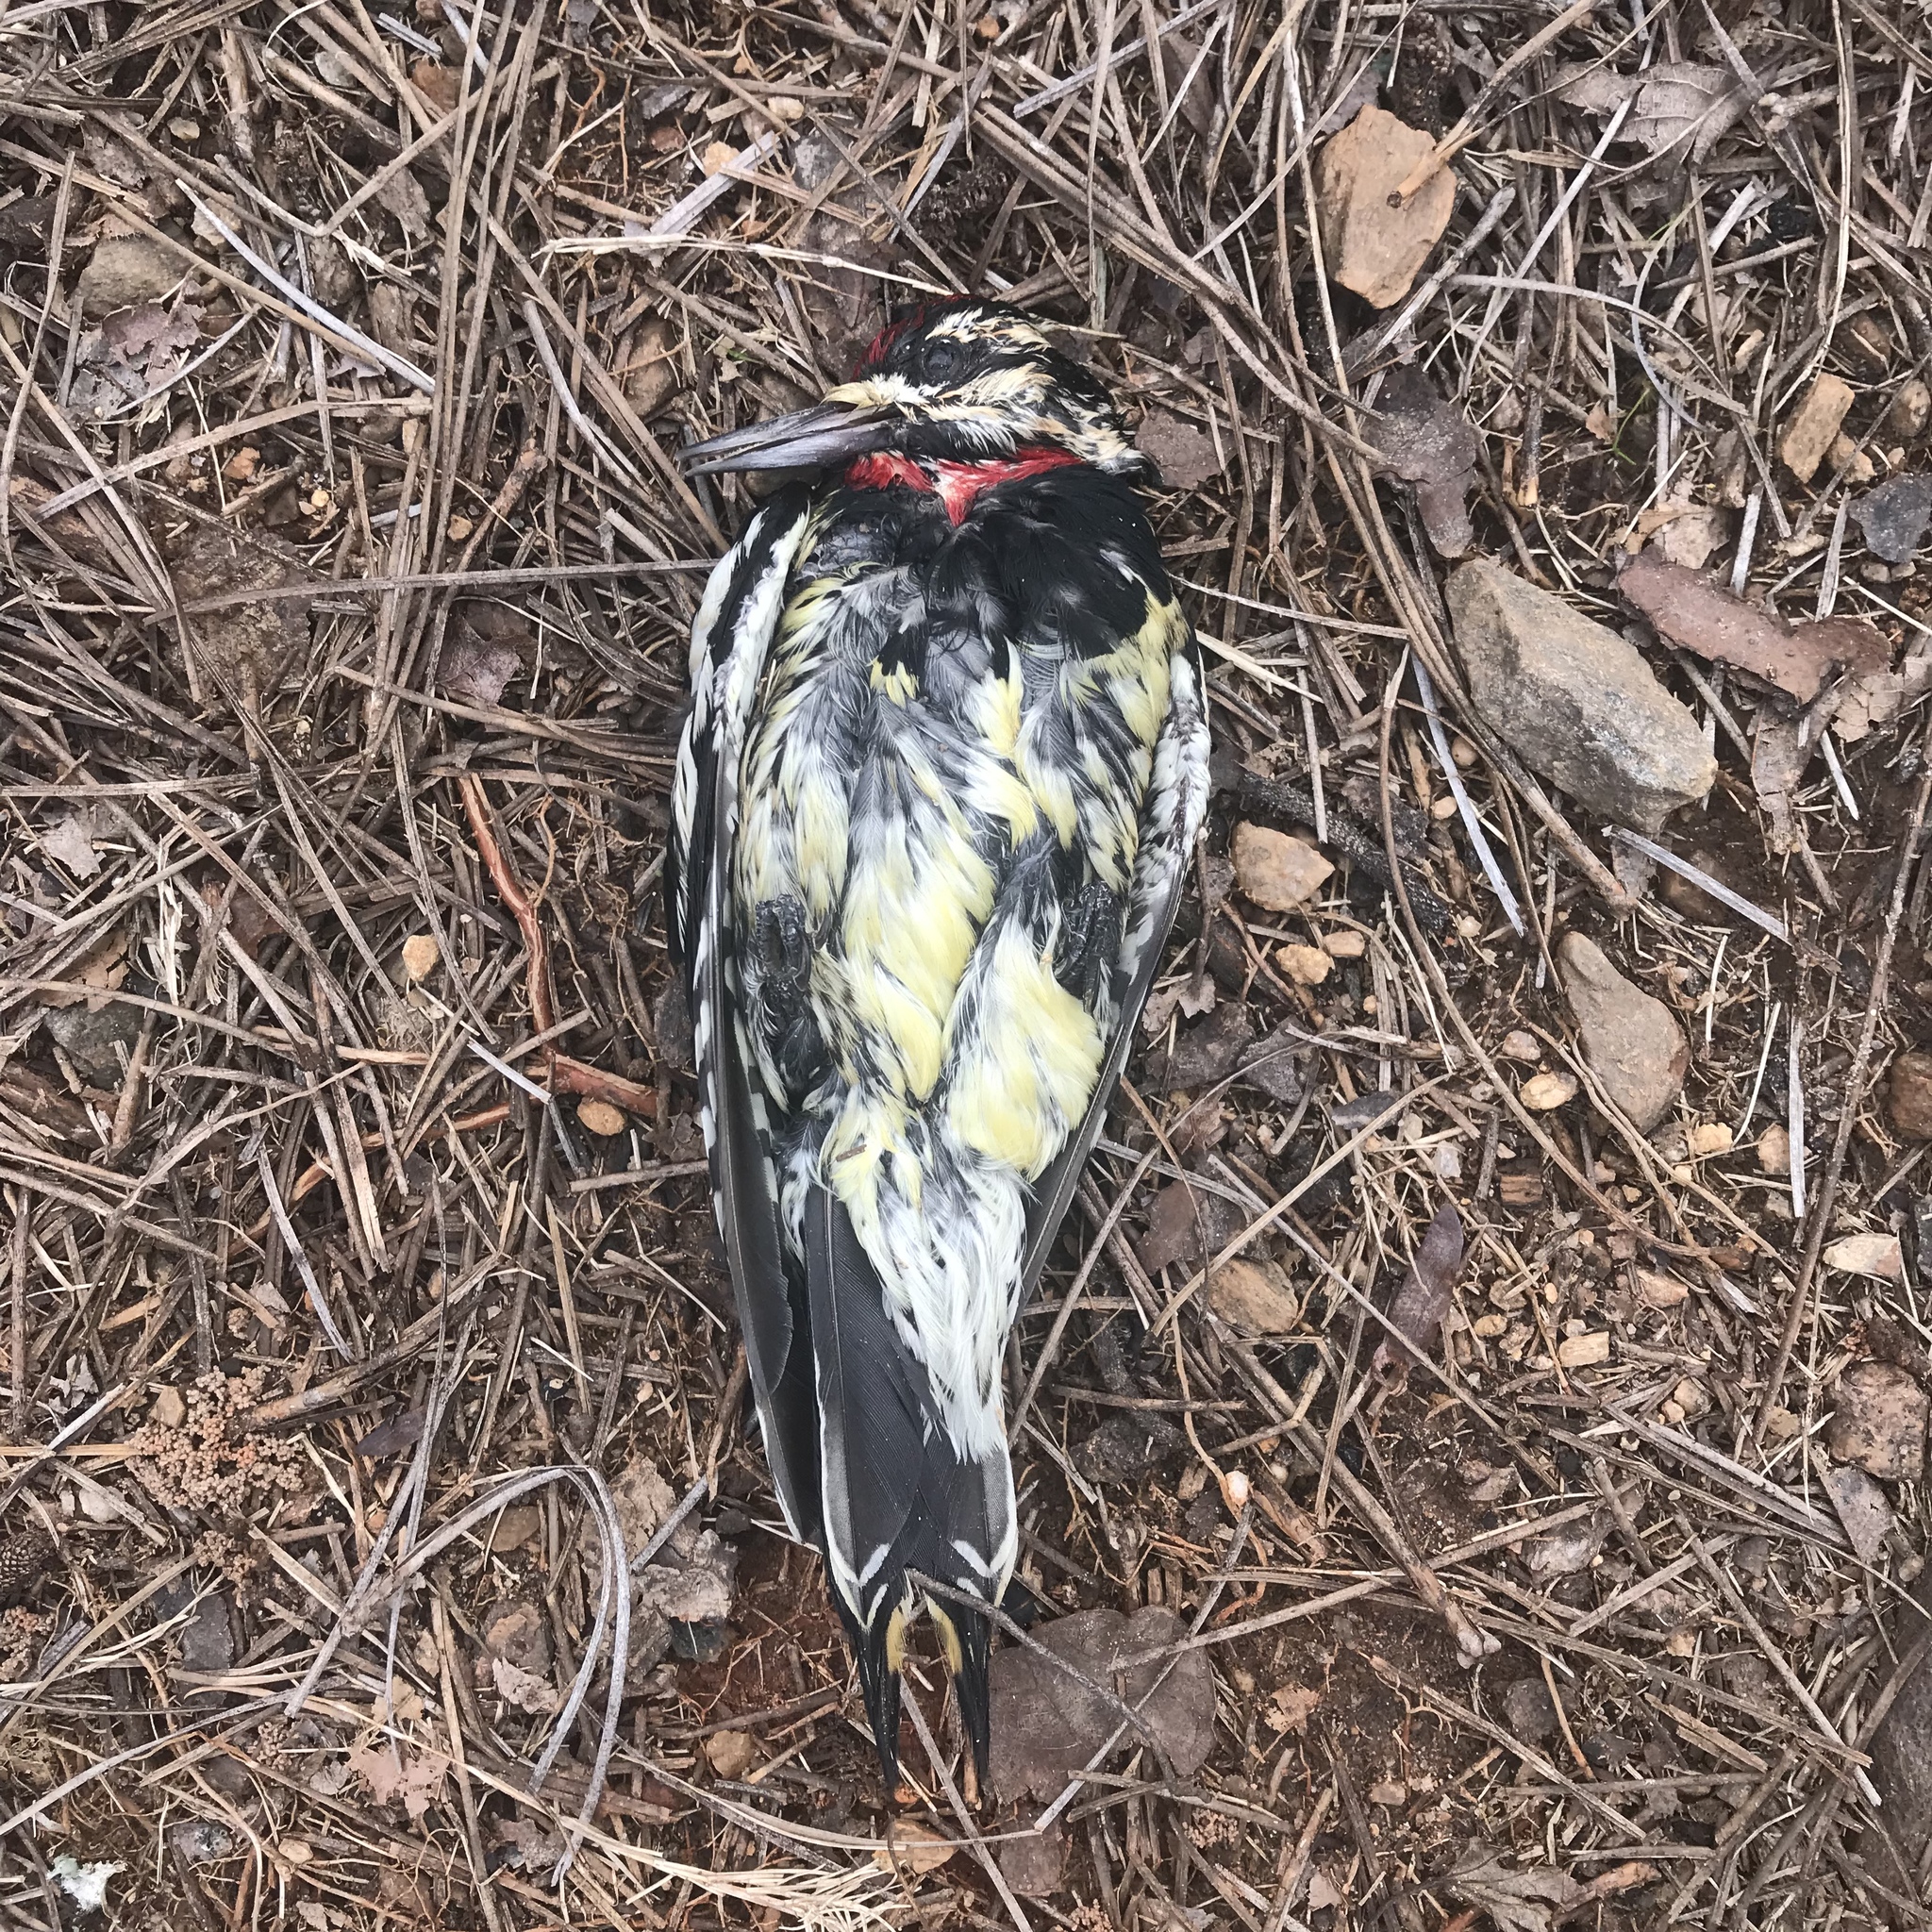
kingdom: Animalia
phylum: Chordata
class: Aves
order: Piciformes
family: Picidae
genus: Sphyrapicus
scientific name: Sphyrapicus varius
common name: Yellow-bellied sapsucker
